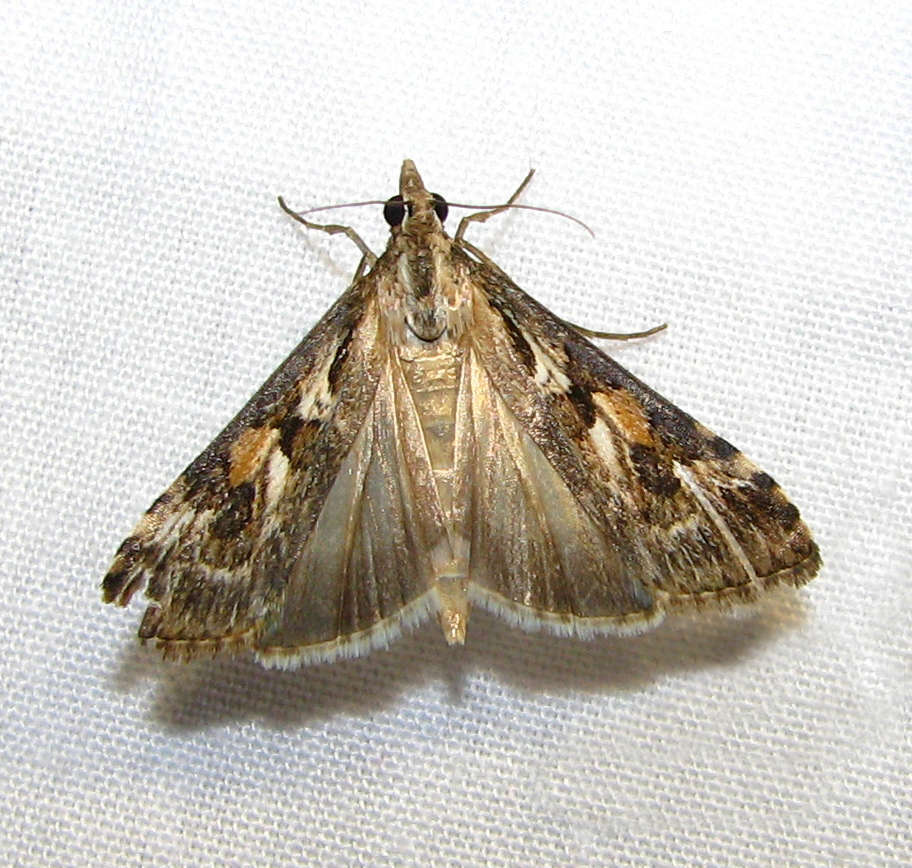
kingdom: Animalia
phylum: Arthropoda
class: Insecta
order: Lepidoptera
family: Crambidae
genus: Nomophila
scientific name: Nomophila corticalis
